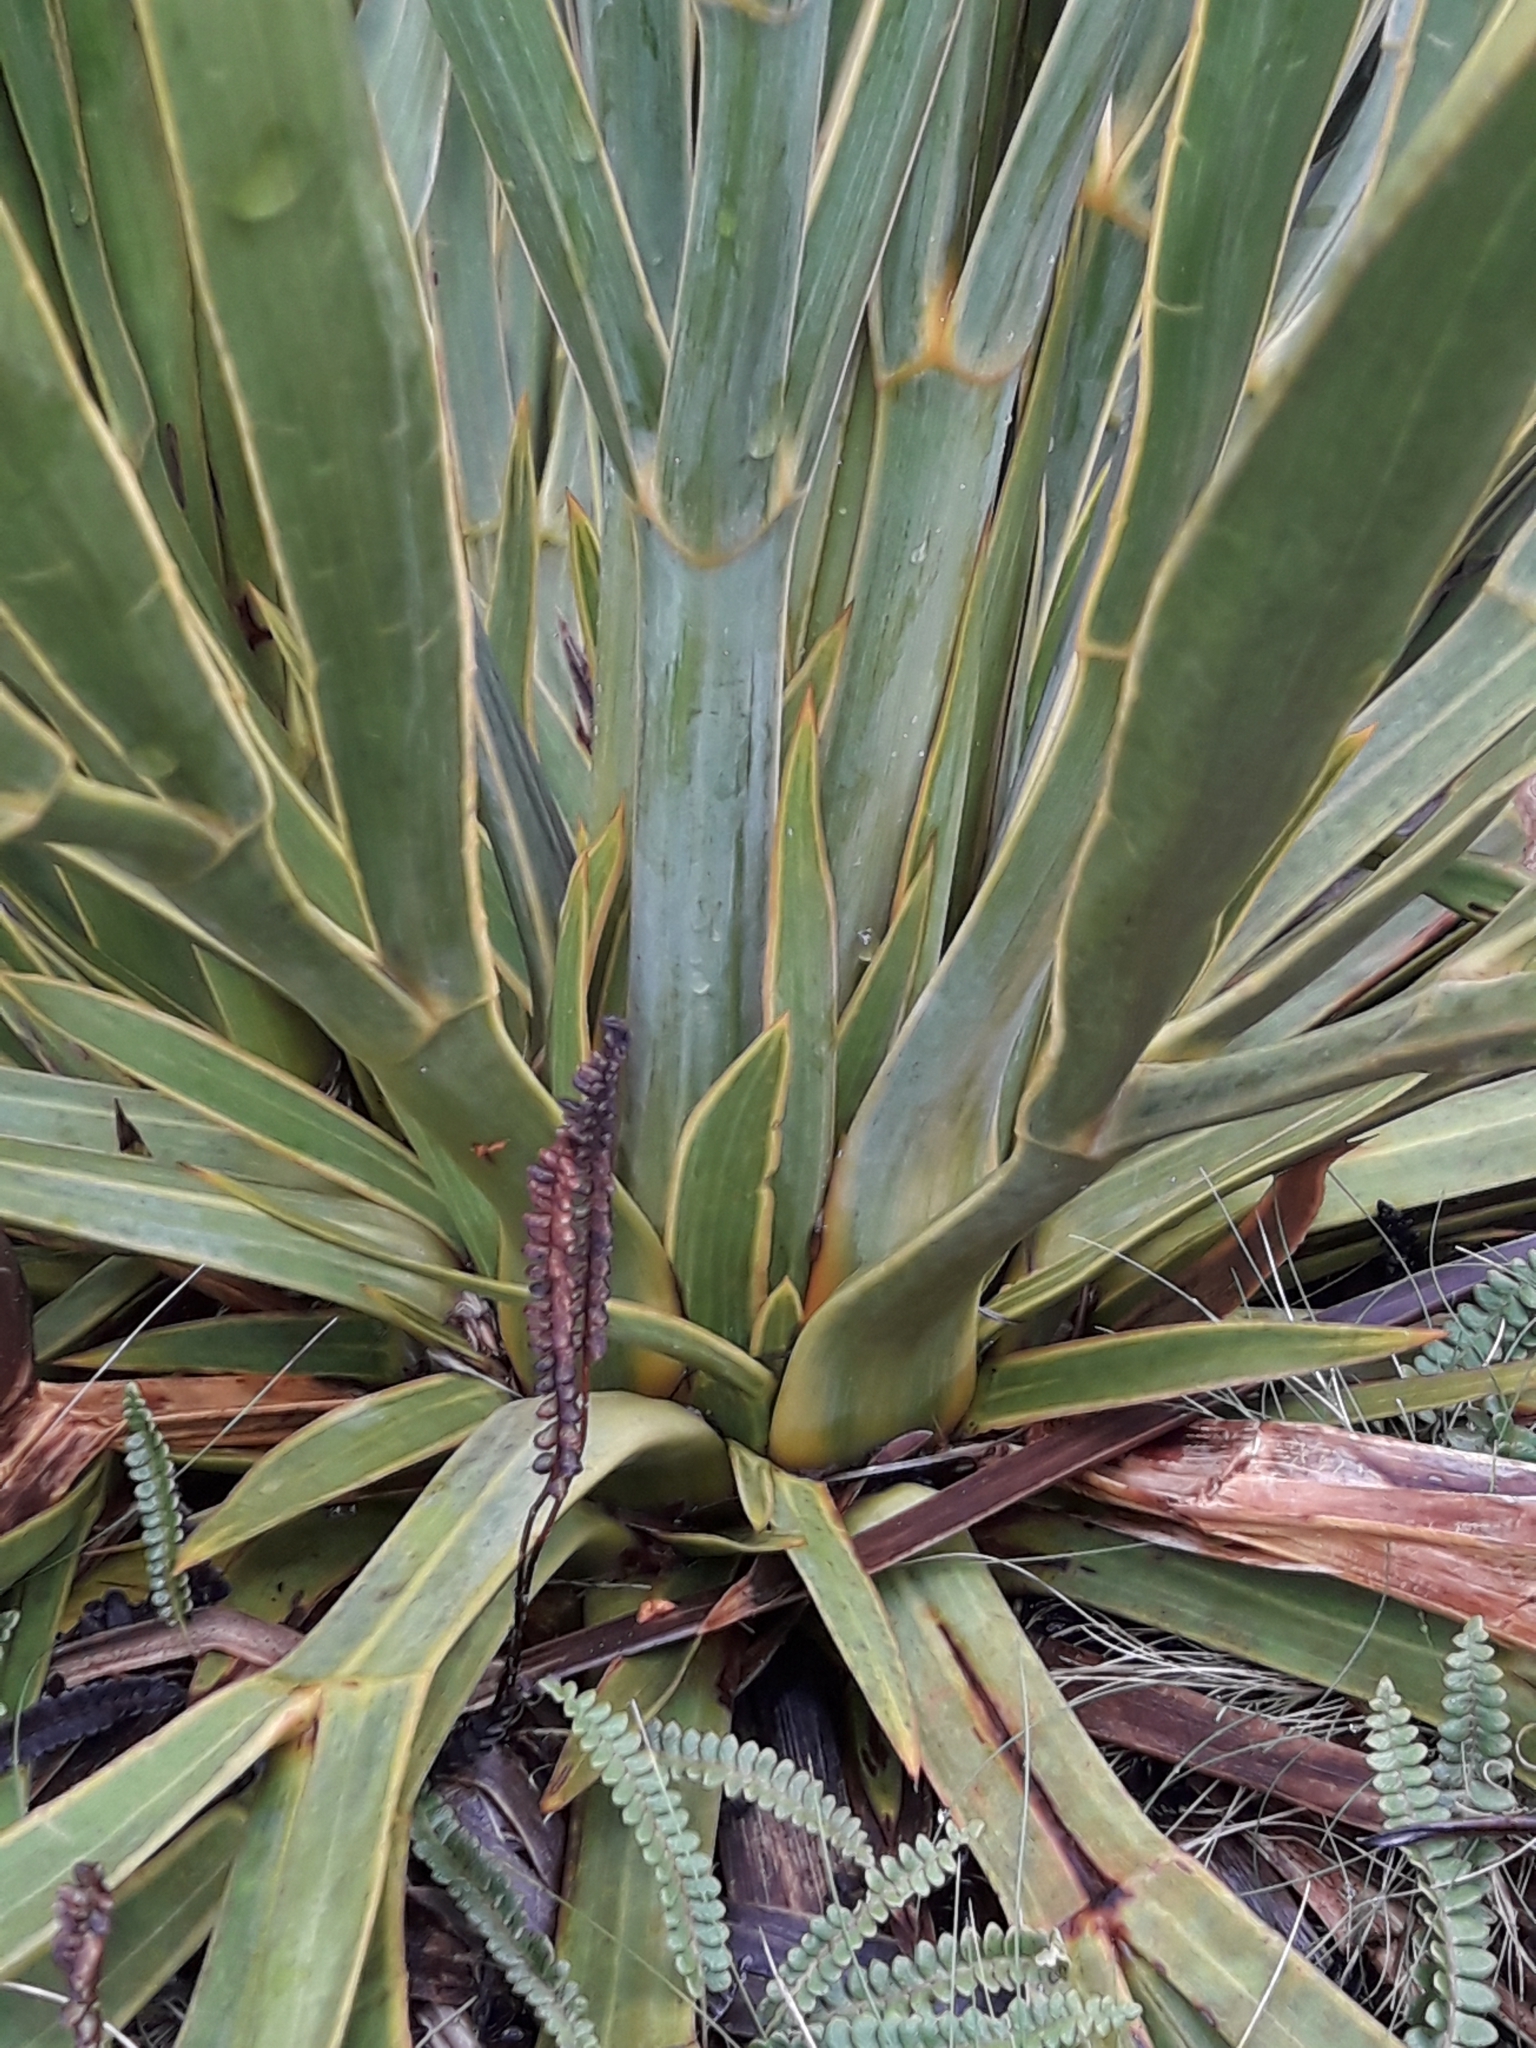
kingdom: Plantae
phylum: Tracheophyta
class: Magnoliopsida
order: Apiales
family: Apiaceae
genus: Aciphylla
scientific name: Aciphylla horrida
